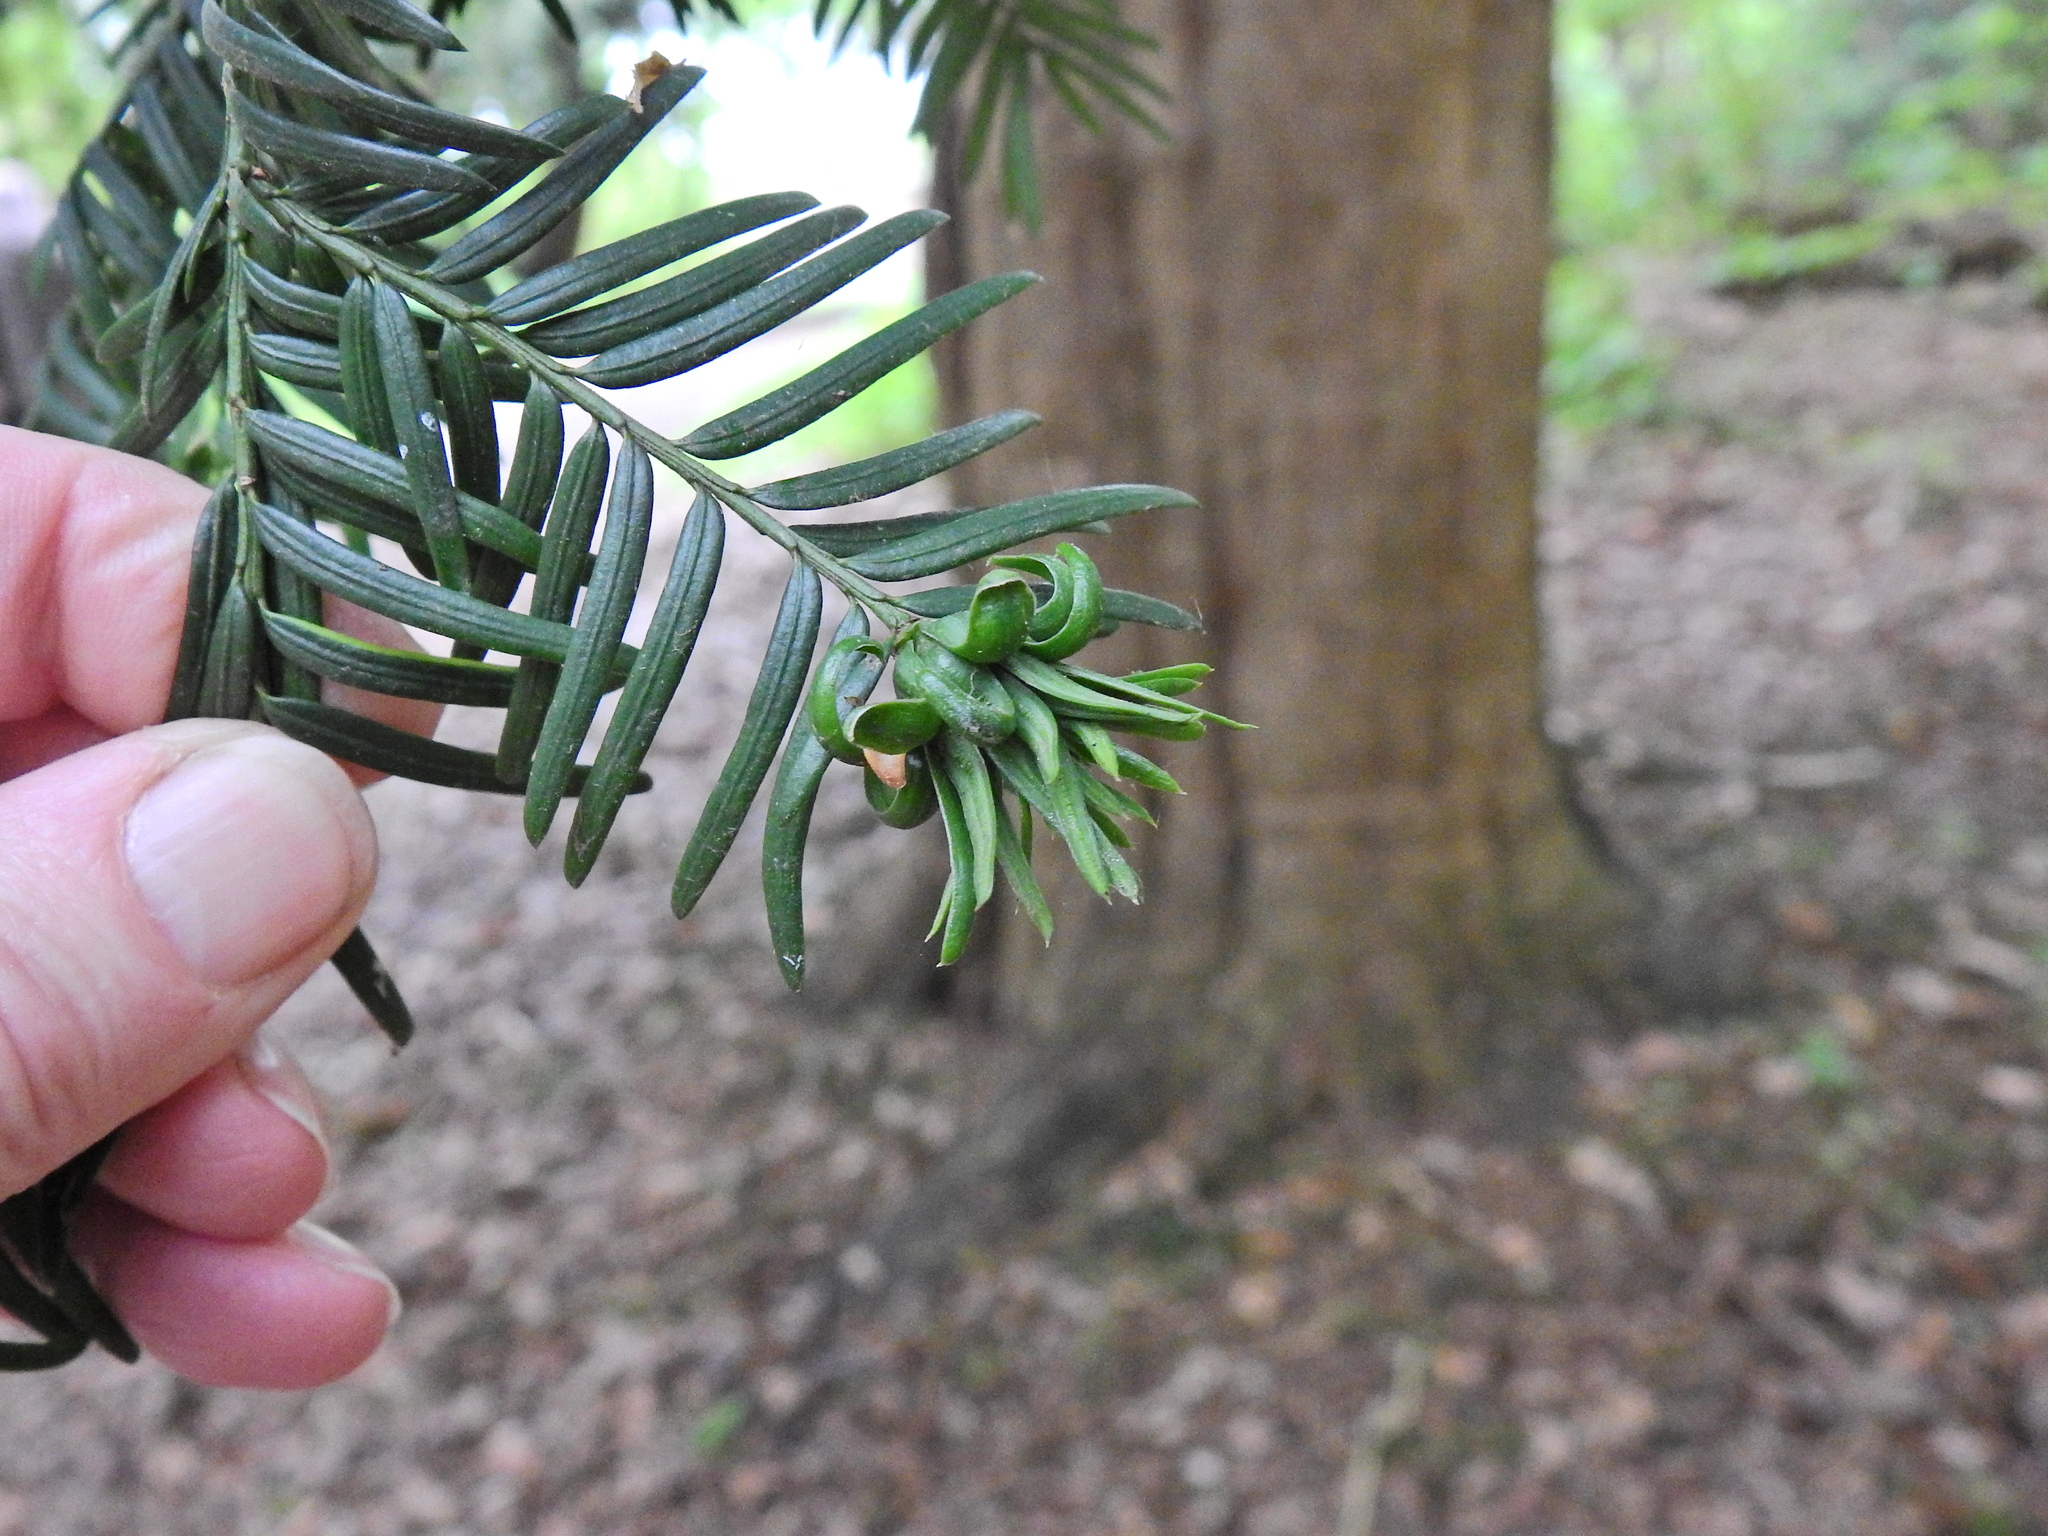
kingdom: Animalia
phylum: Arthropoda
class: Insecta
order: Diptera
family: Cecidomyiidae
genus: Taxomyia
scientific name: Taxomyia taxi
